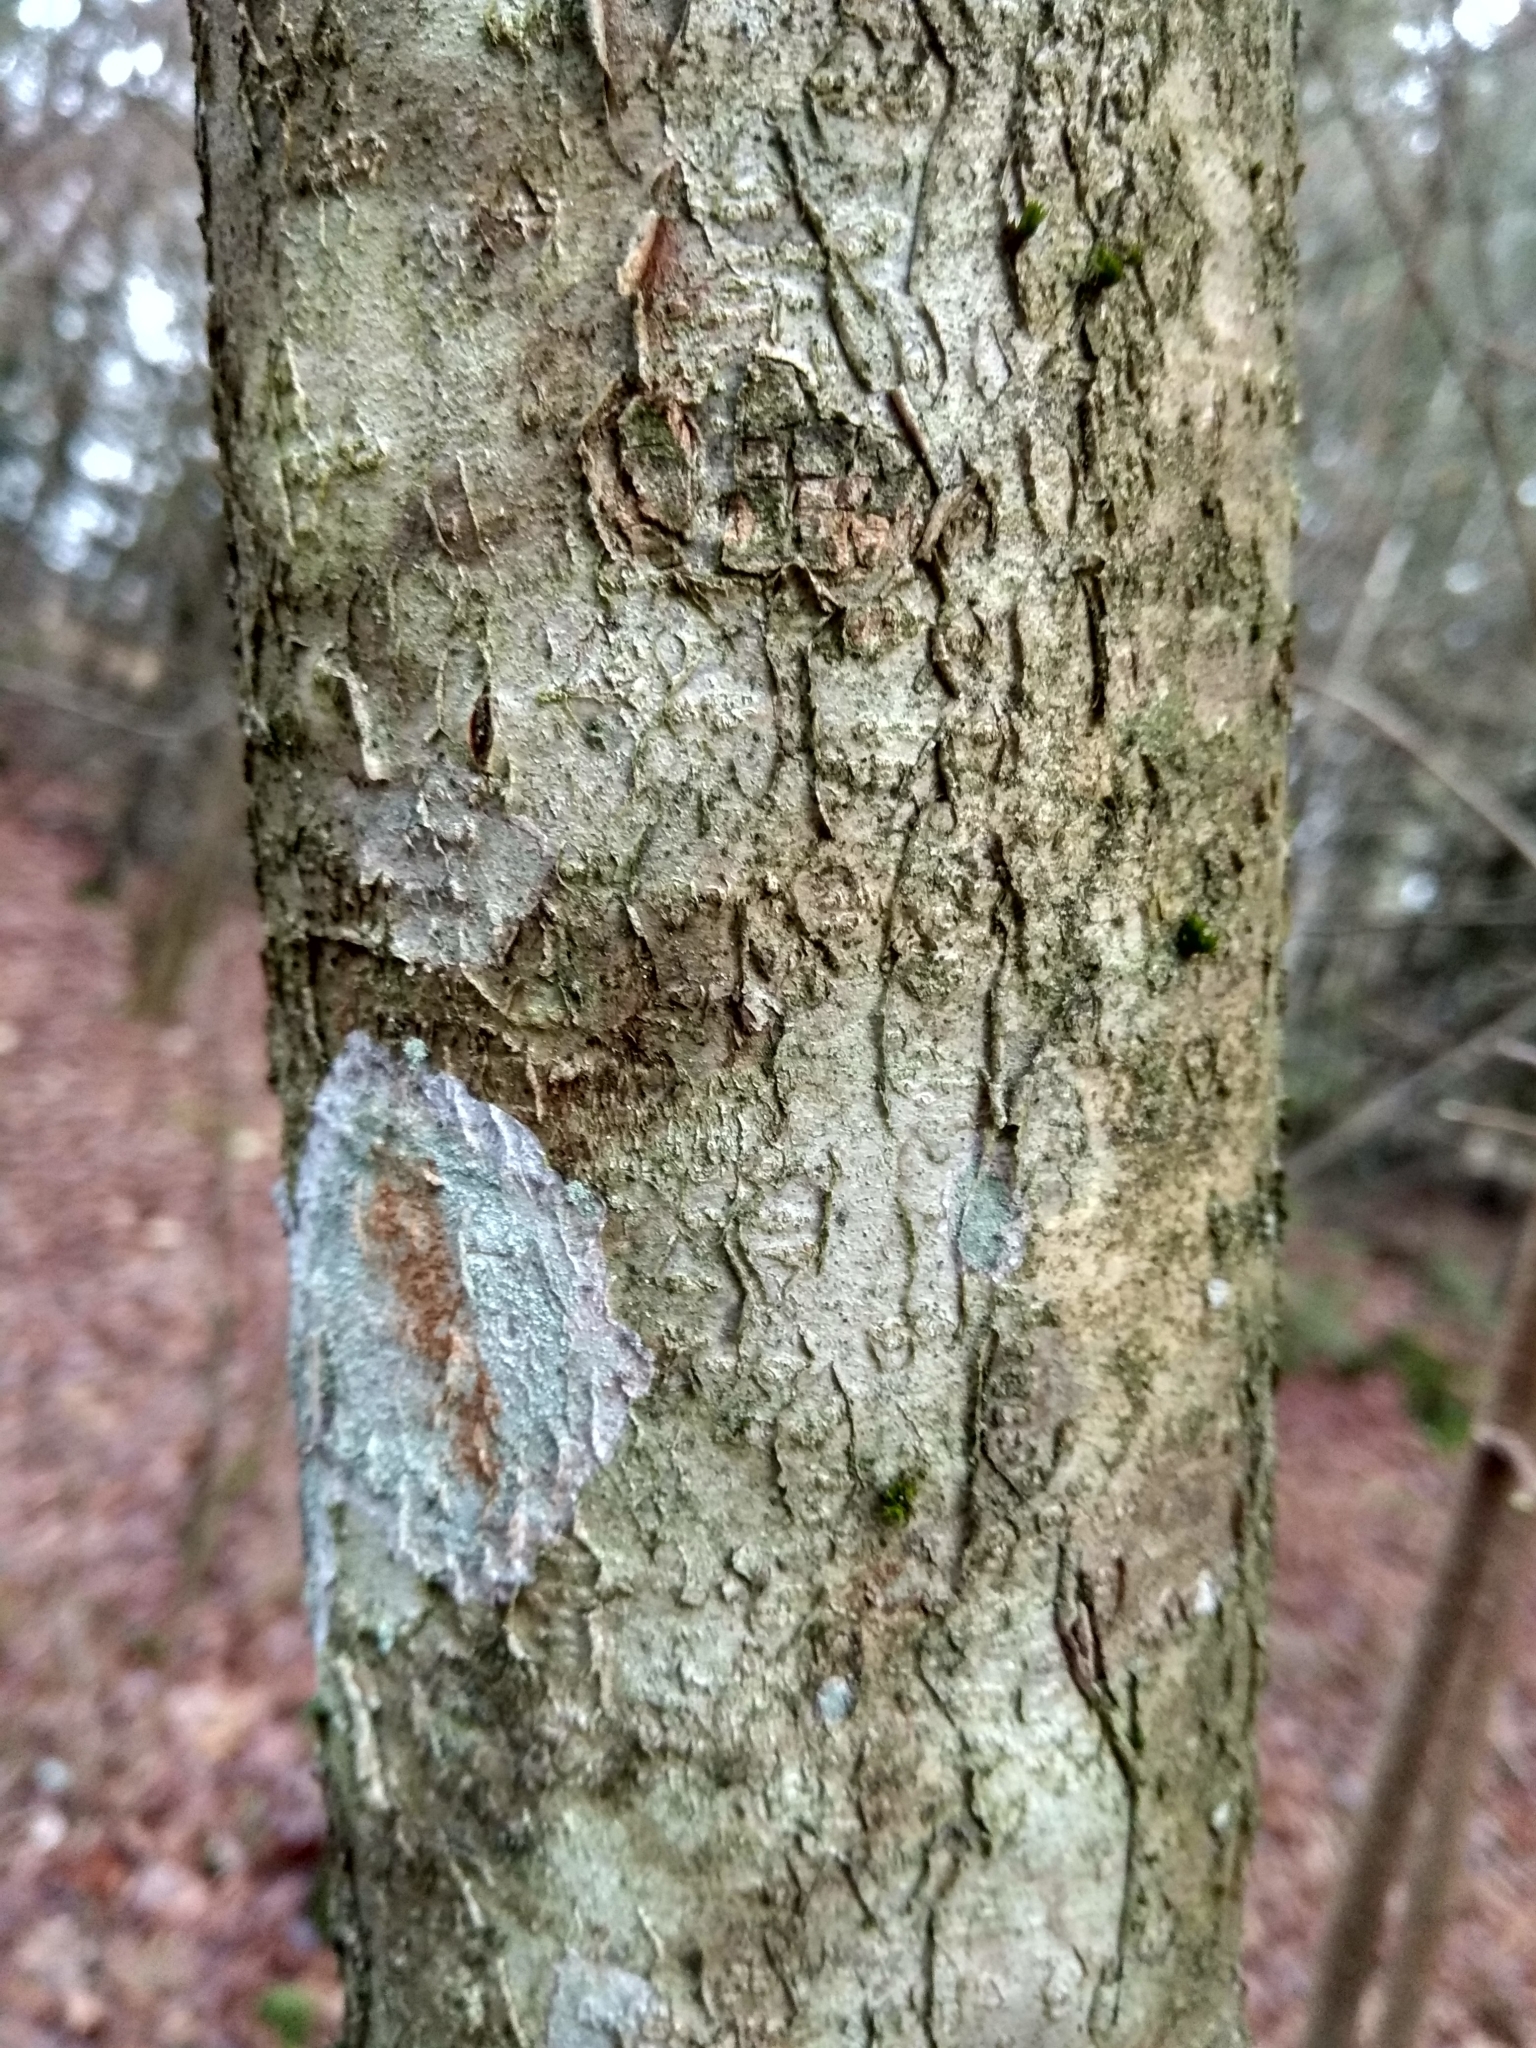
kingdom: Plantae
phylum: Tracheophyta
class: Magnoliopsida
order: Fagales
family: Betulaceae
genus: Corylus
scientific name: Corylus avellana
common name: European hazel
